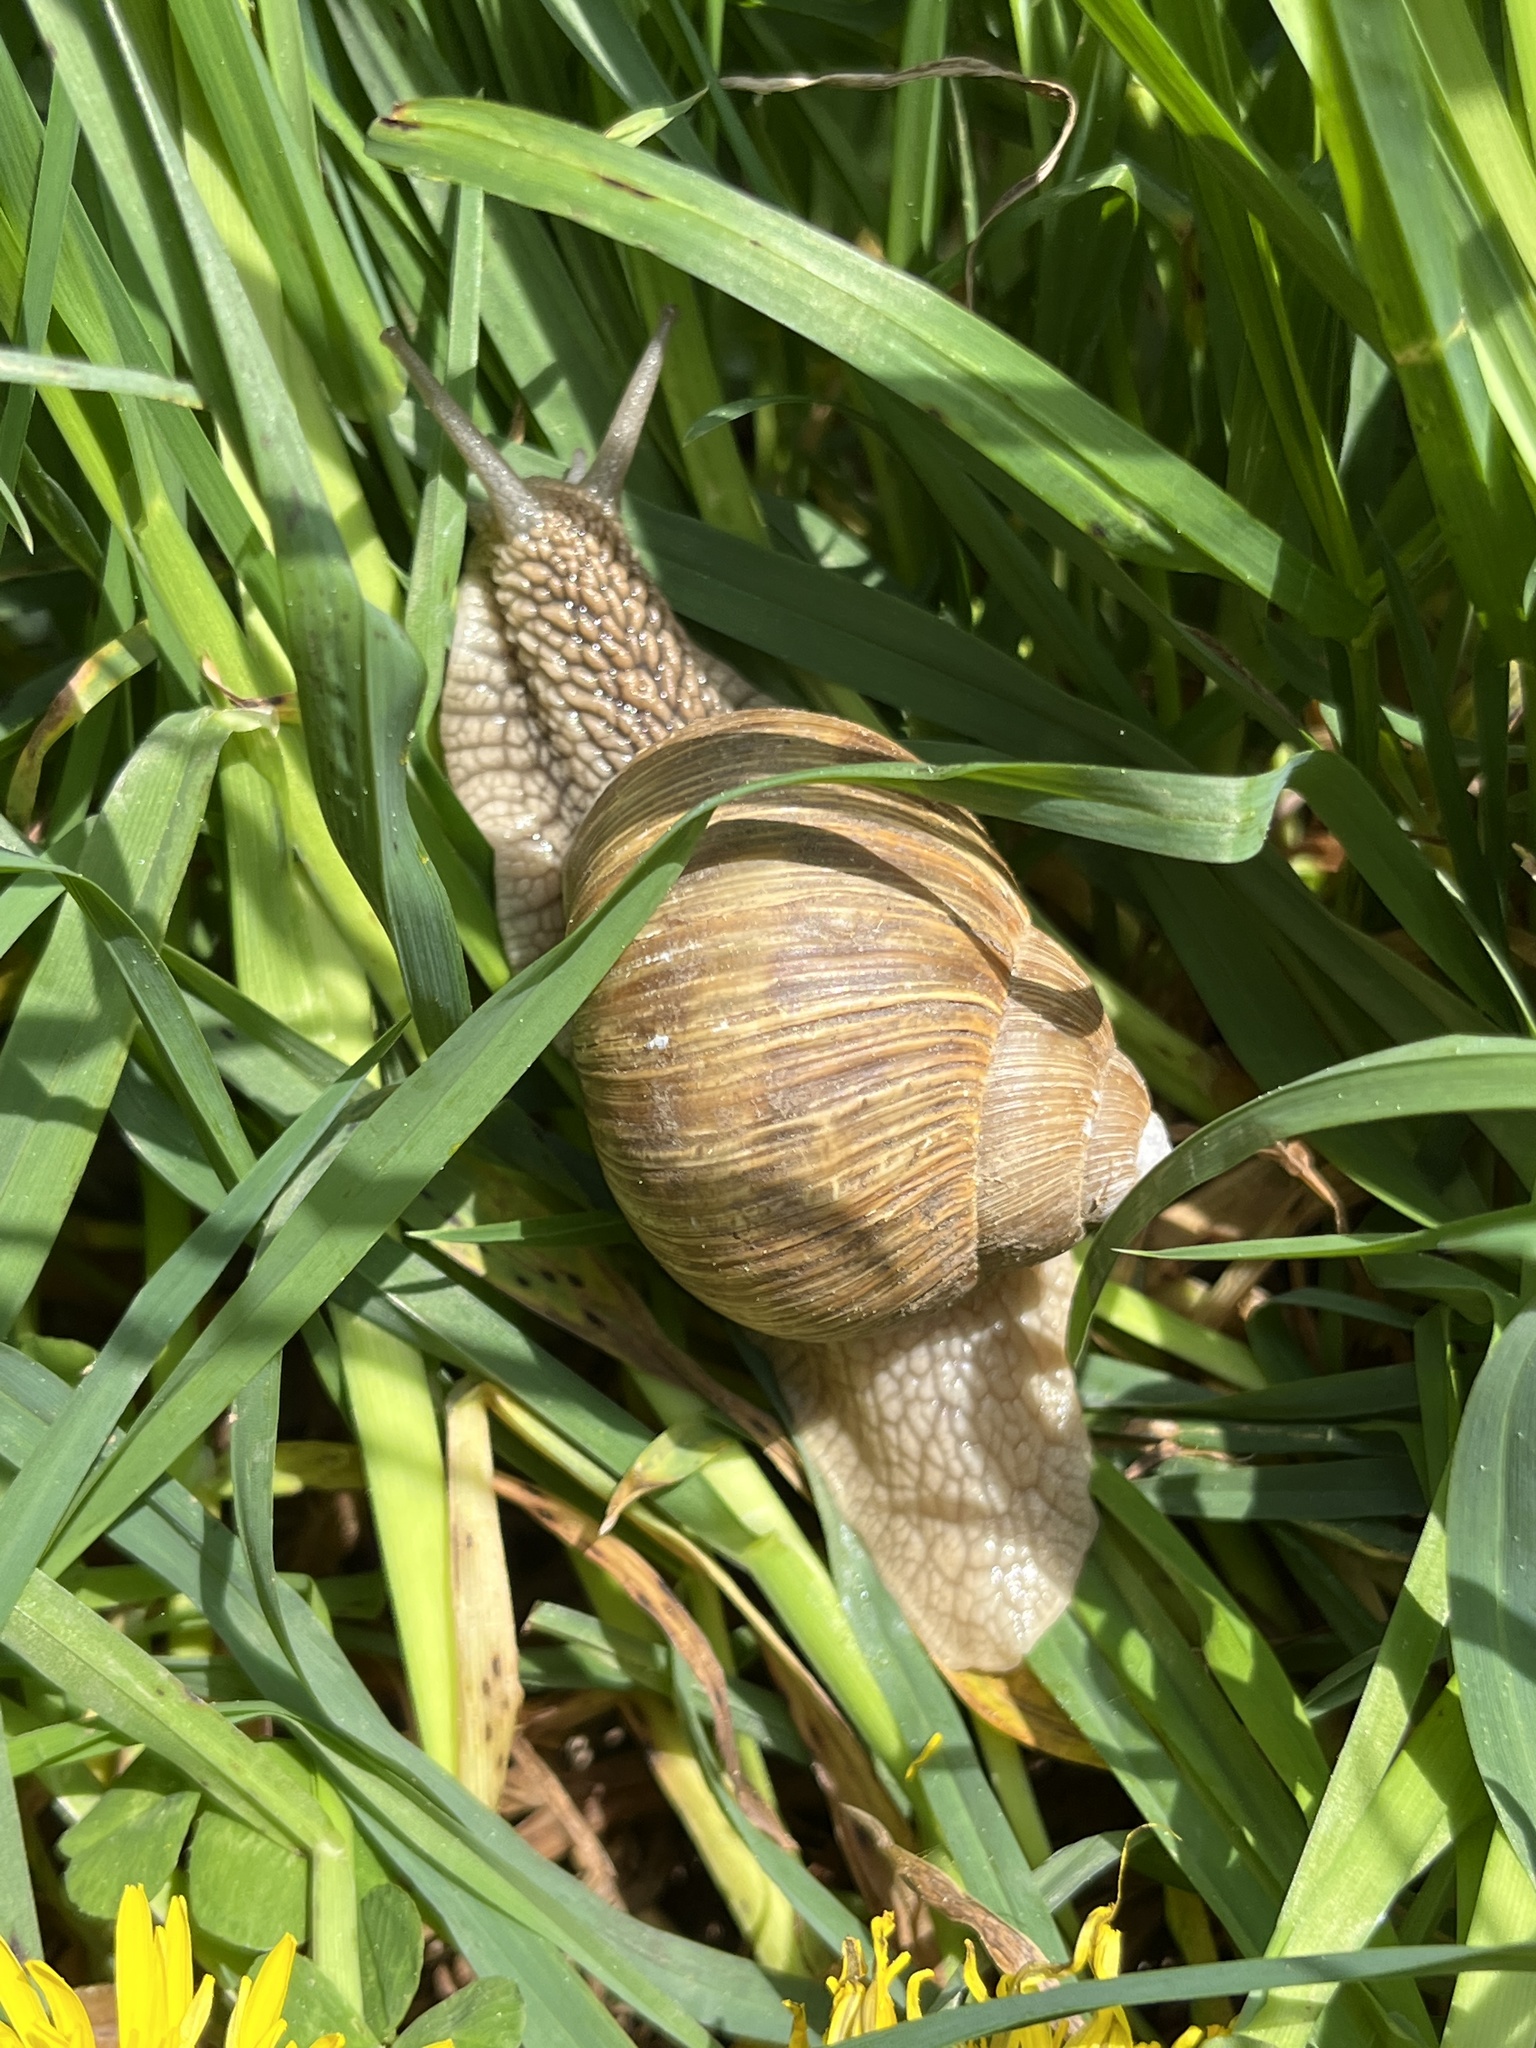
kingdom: Animalia
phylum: Mollusca
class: Gastropoda
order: Stylommatophora
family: Helicidae
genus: Helix
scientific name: Helix pomatia
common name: Roman snail
